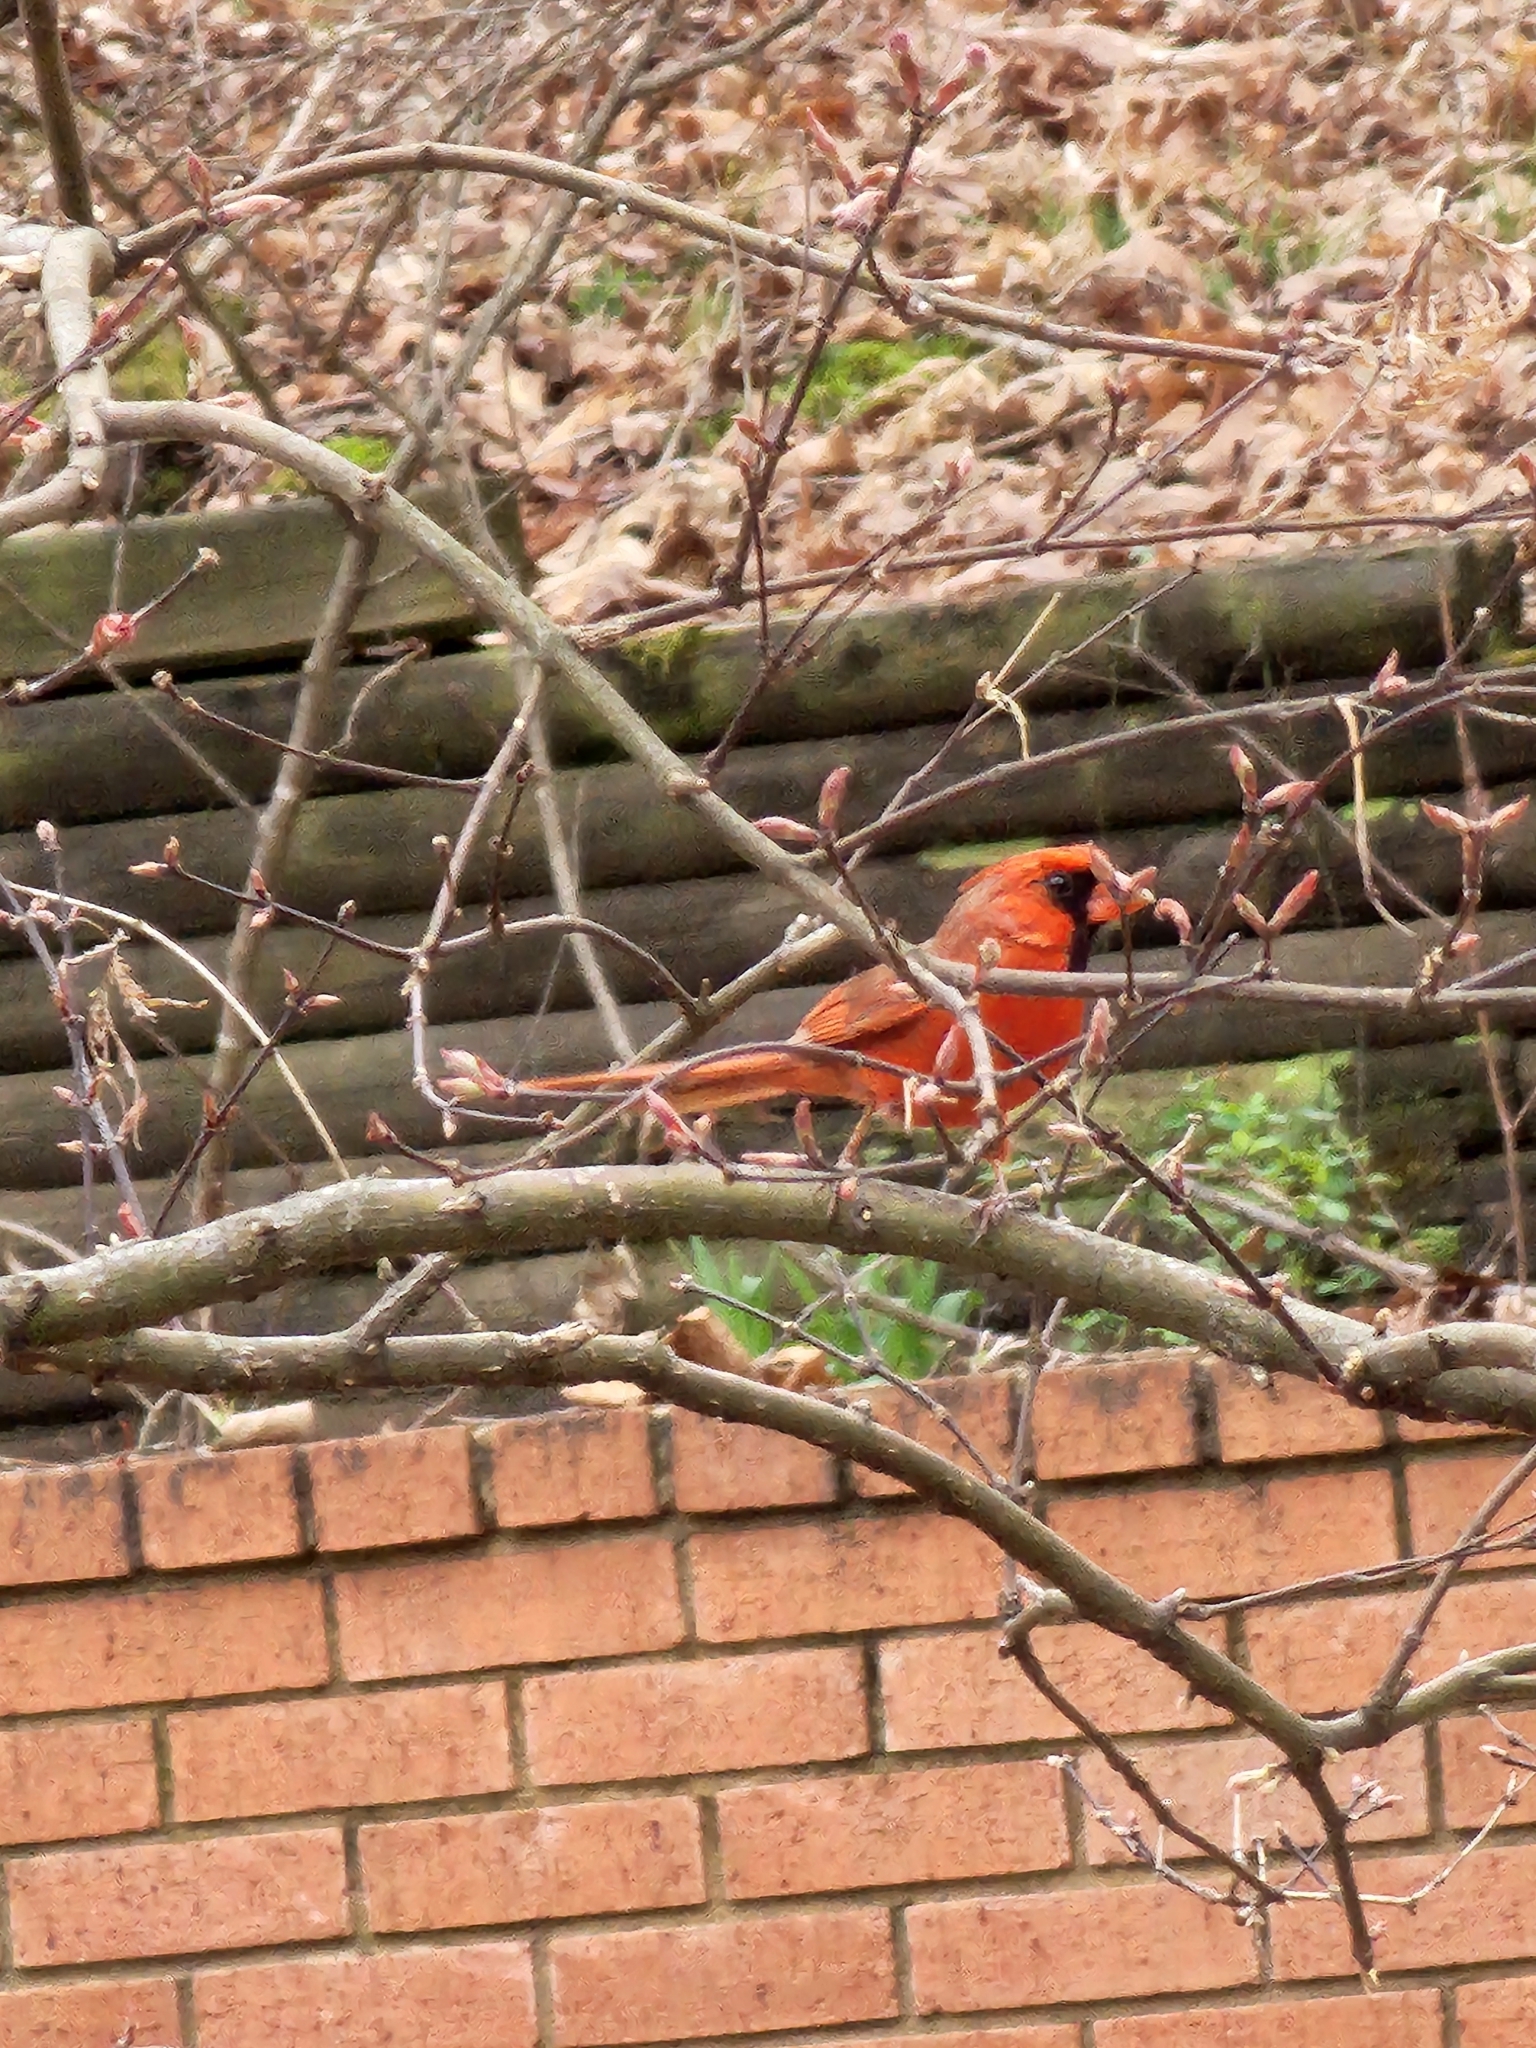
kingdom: Animalia
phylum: Chordata
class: Aves
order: Passeriformes
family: Cardinalidae
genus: Cardinalis
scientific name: Cardinalis cardinalis
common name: Northern cardinal
